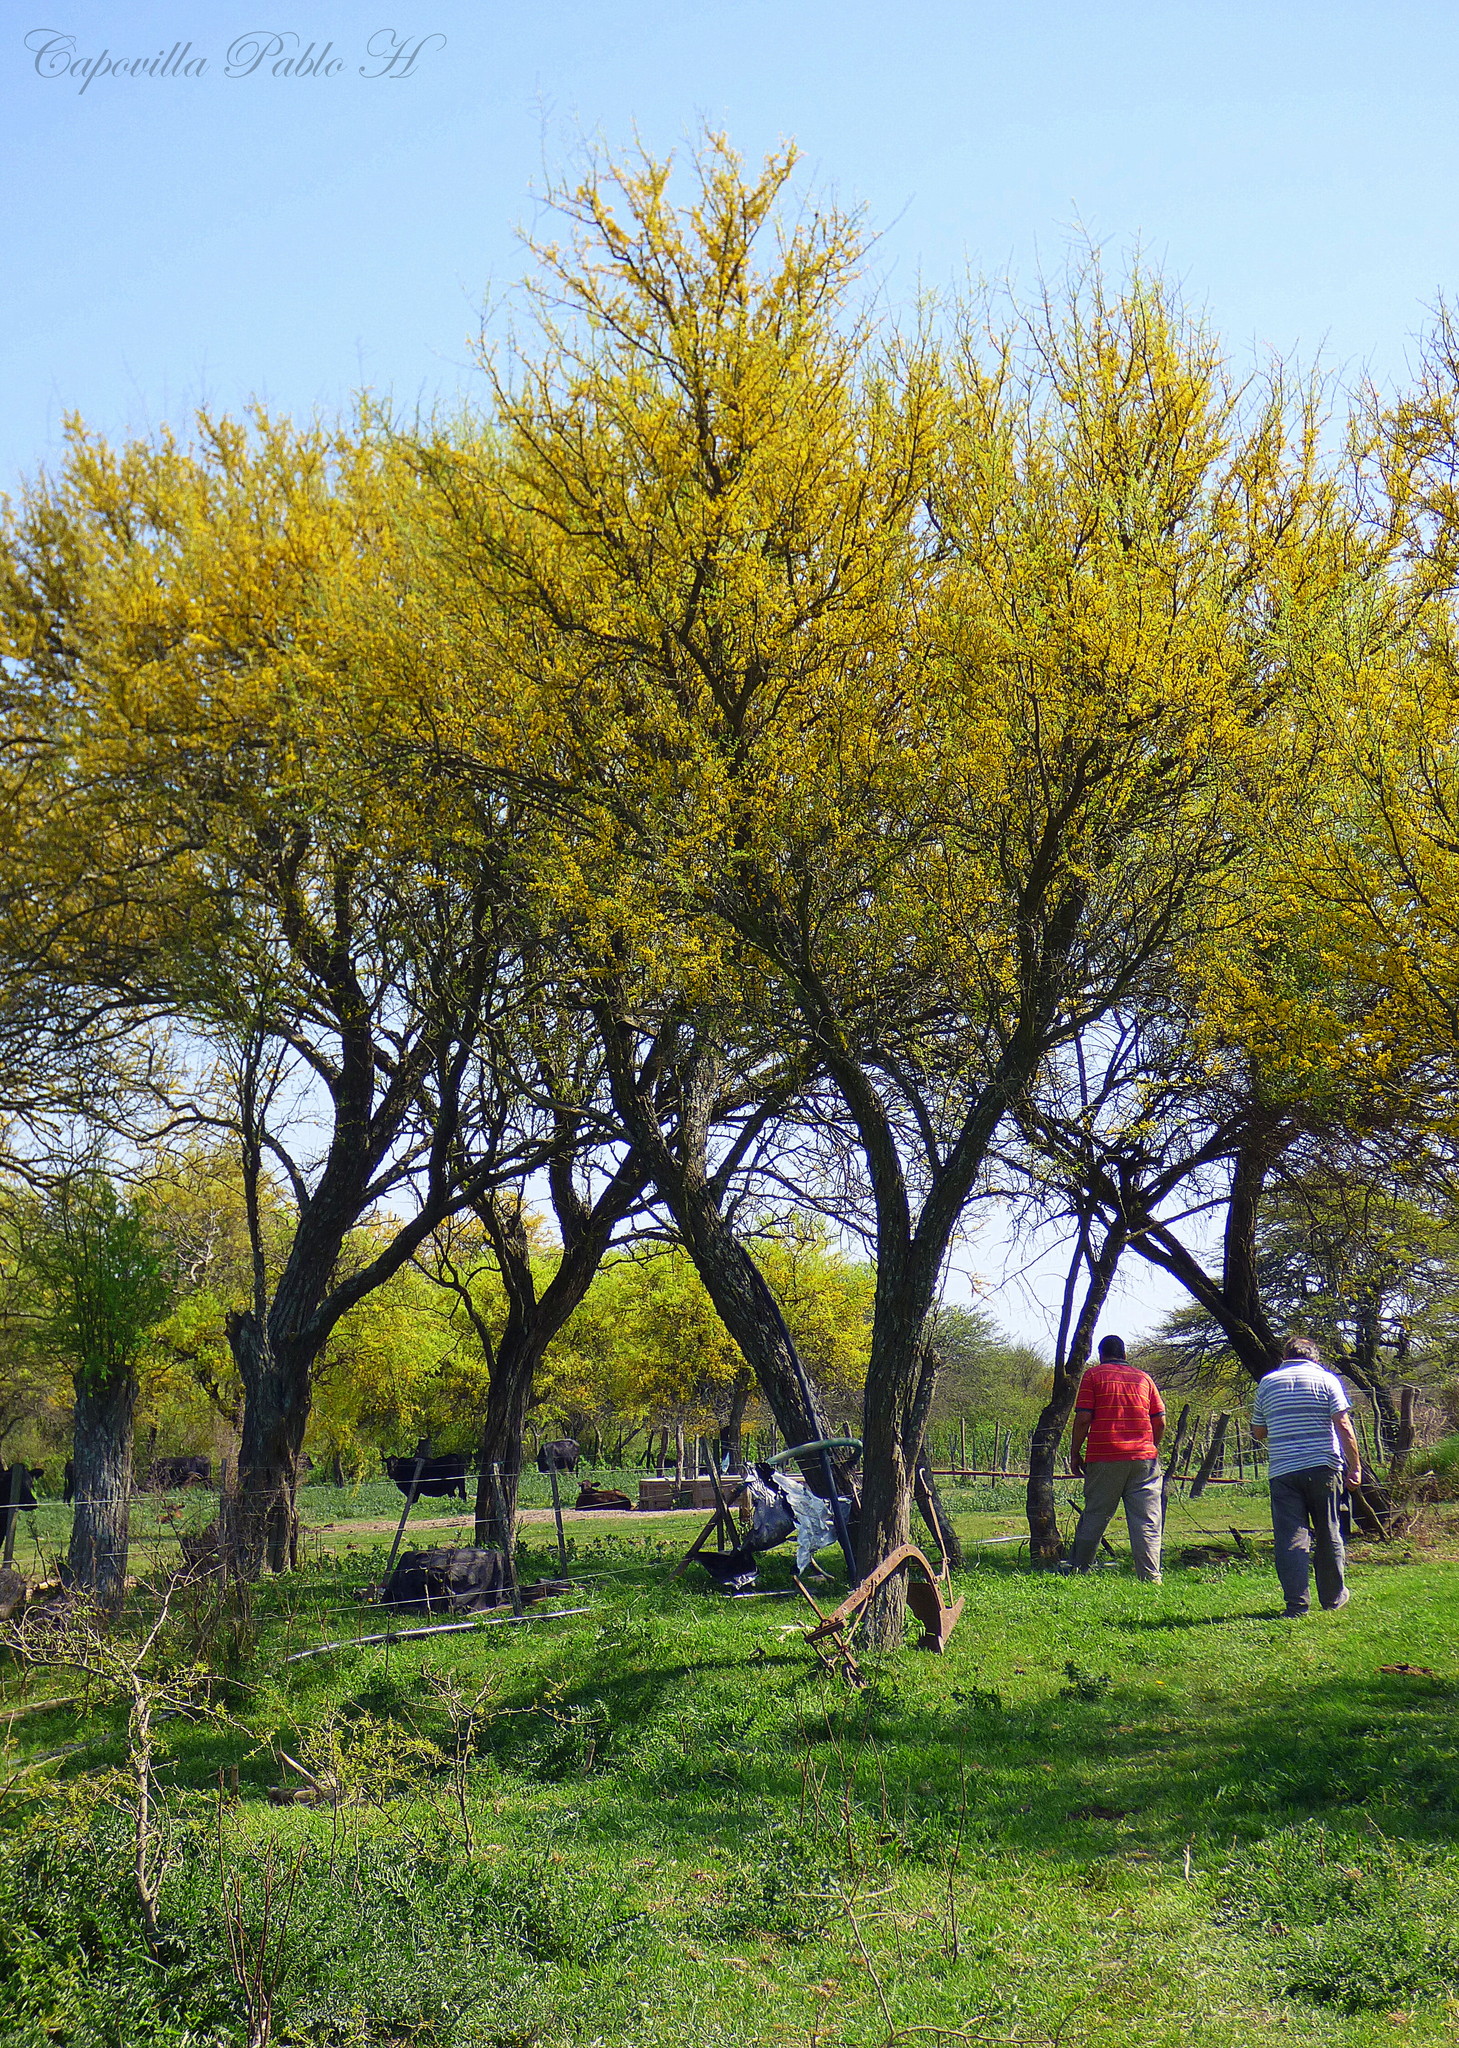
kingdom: Plantae
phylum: Tracheophyta
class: Magnoliopsida
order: Fabales
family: Fabaceae
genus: Geoffroea
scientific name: Geoffroea decorticans
